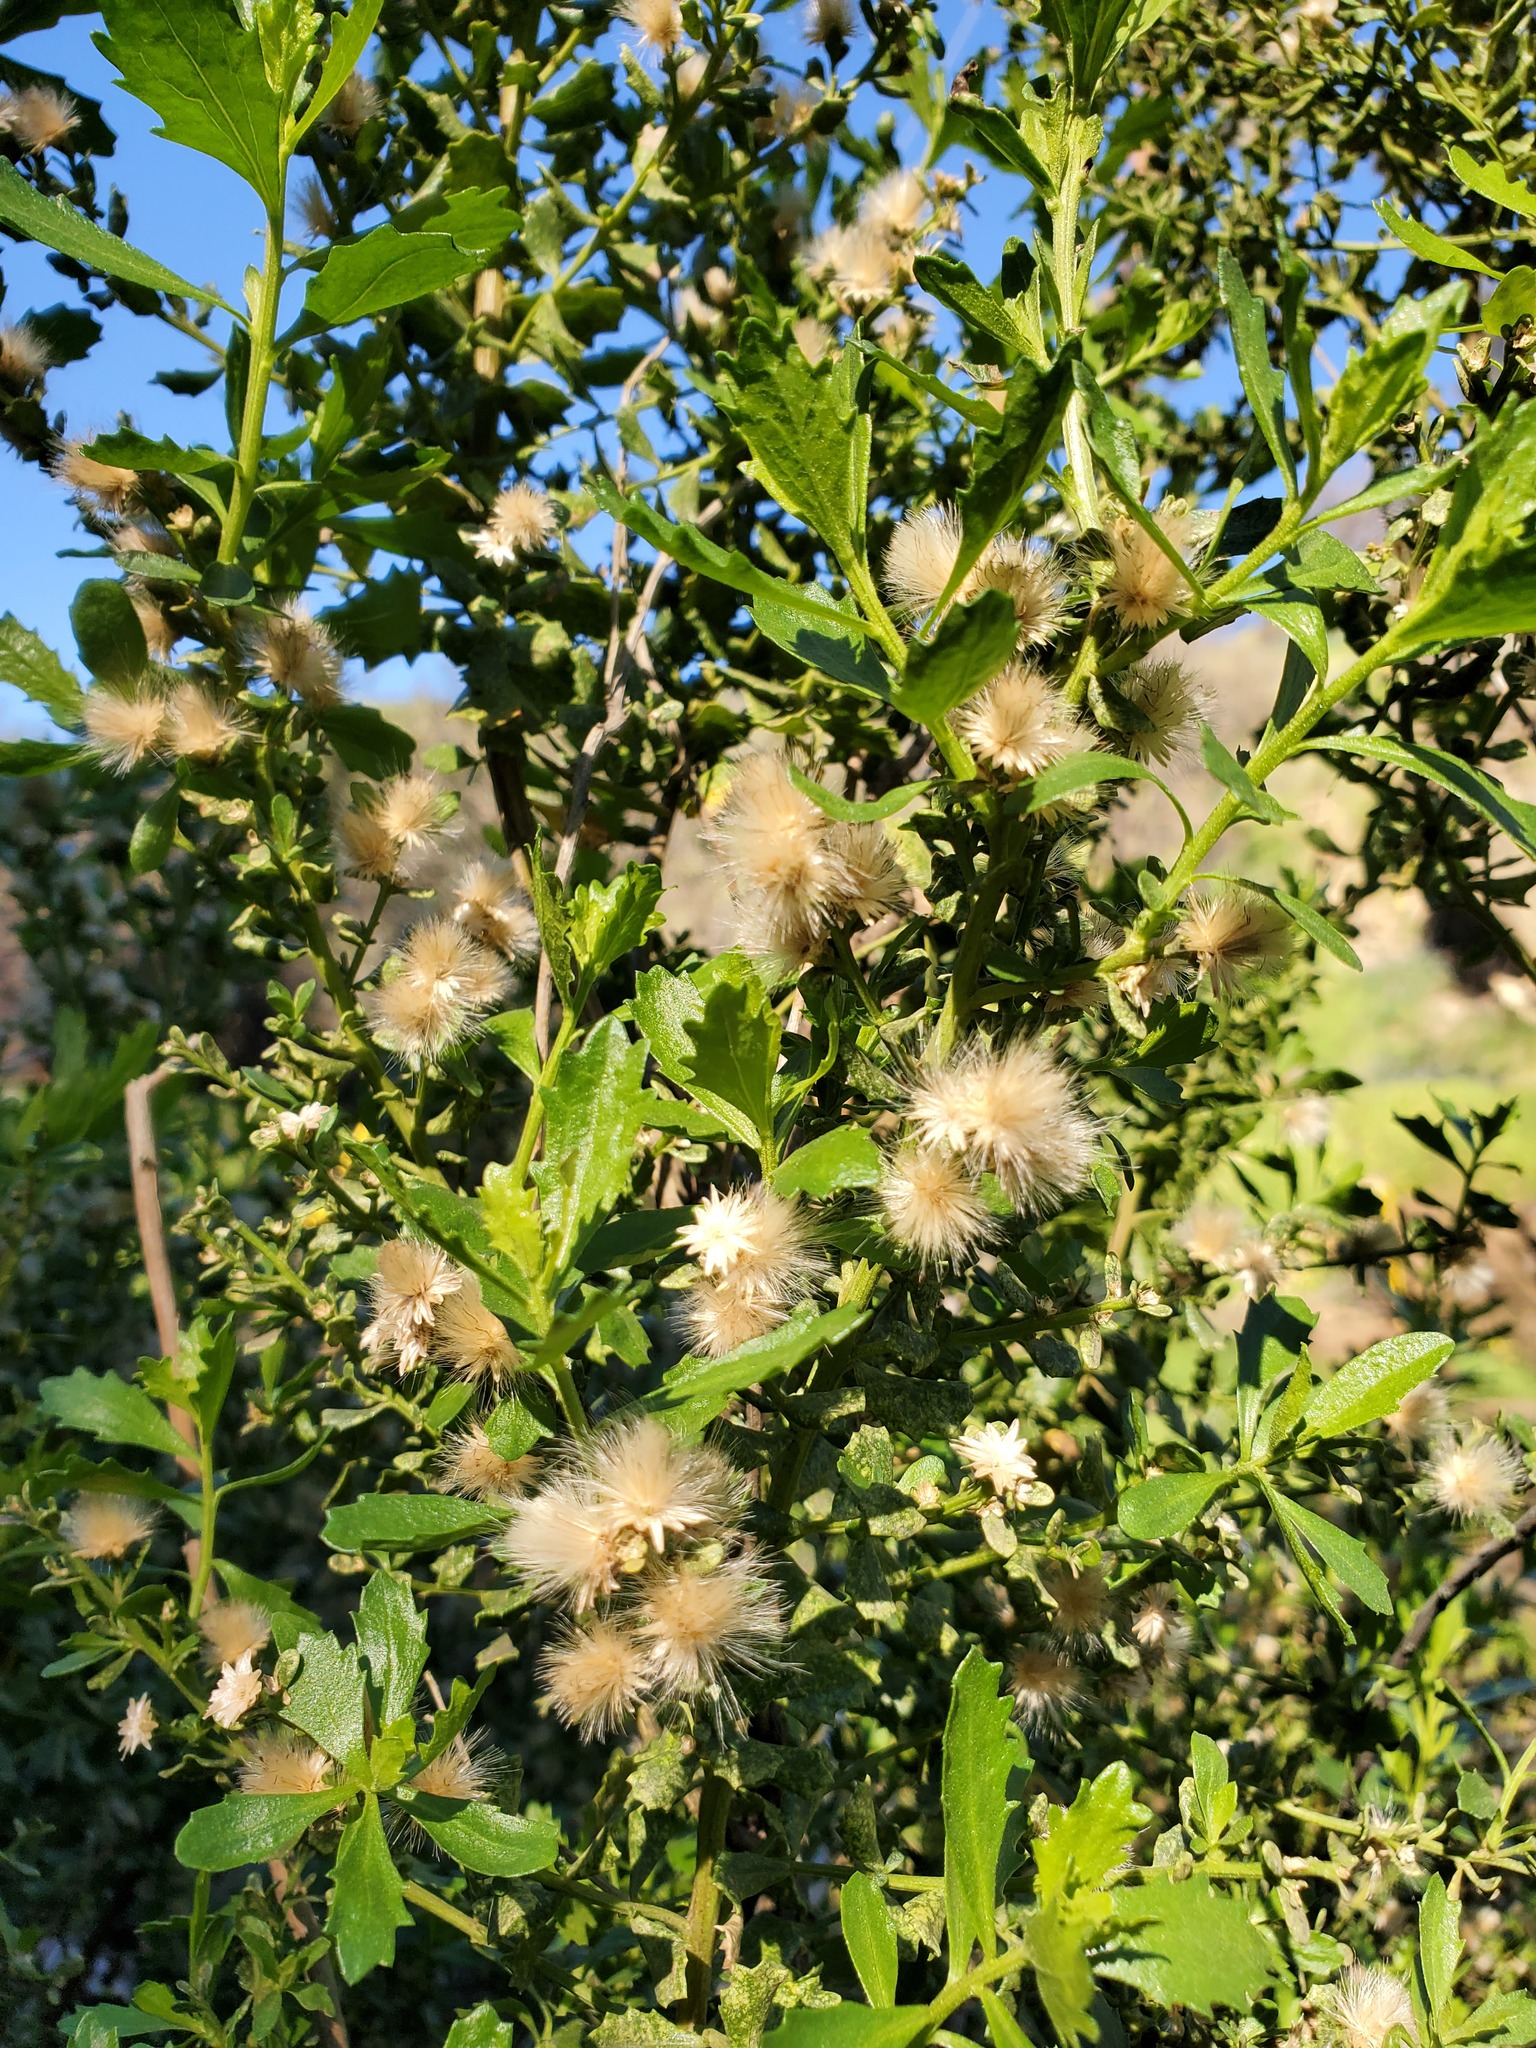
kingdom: Plantae
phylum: Tracheophyta
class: Magnoliopsida
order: Asterales
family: Asteraceae
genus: Baccharis
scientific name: Baccharis pilularis
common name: Coyotebrush
